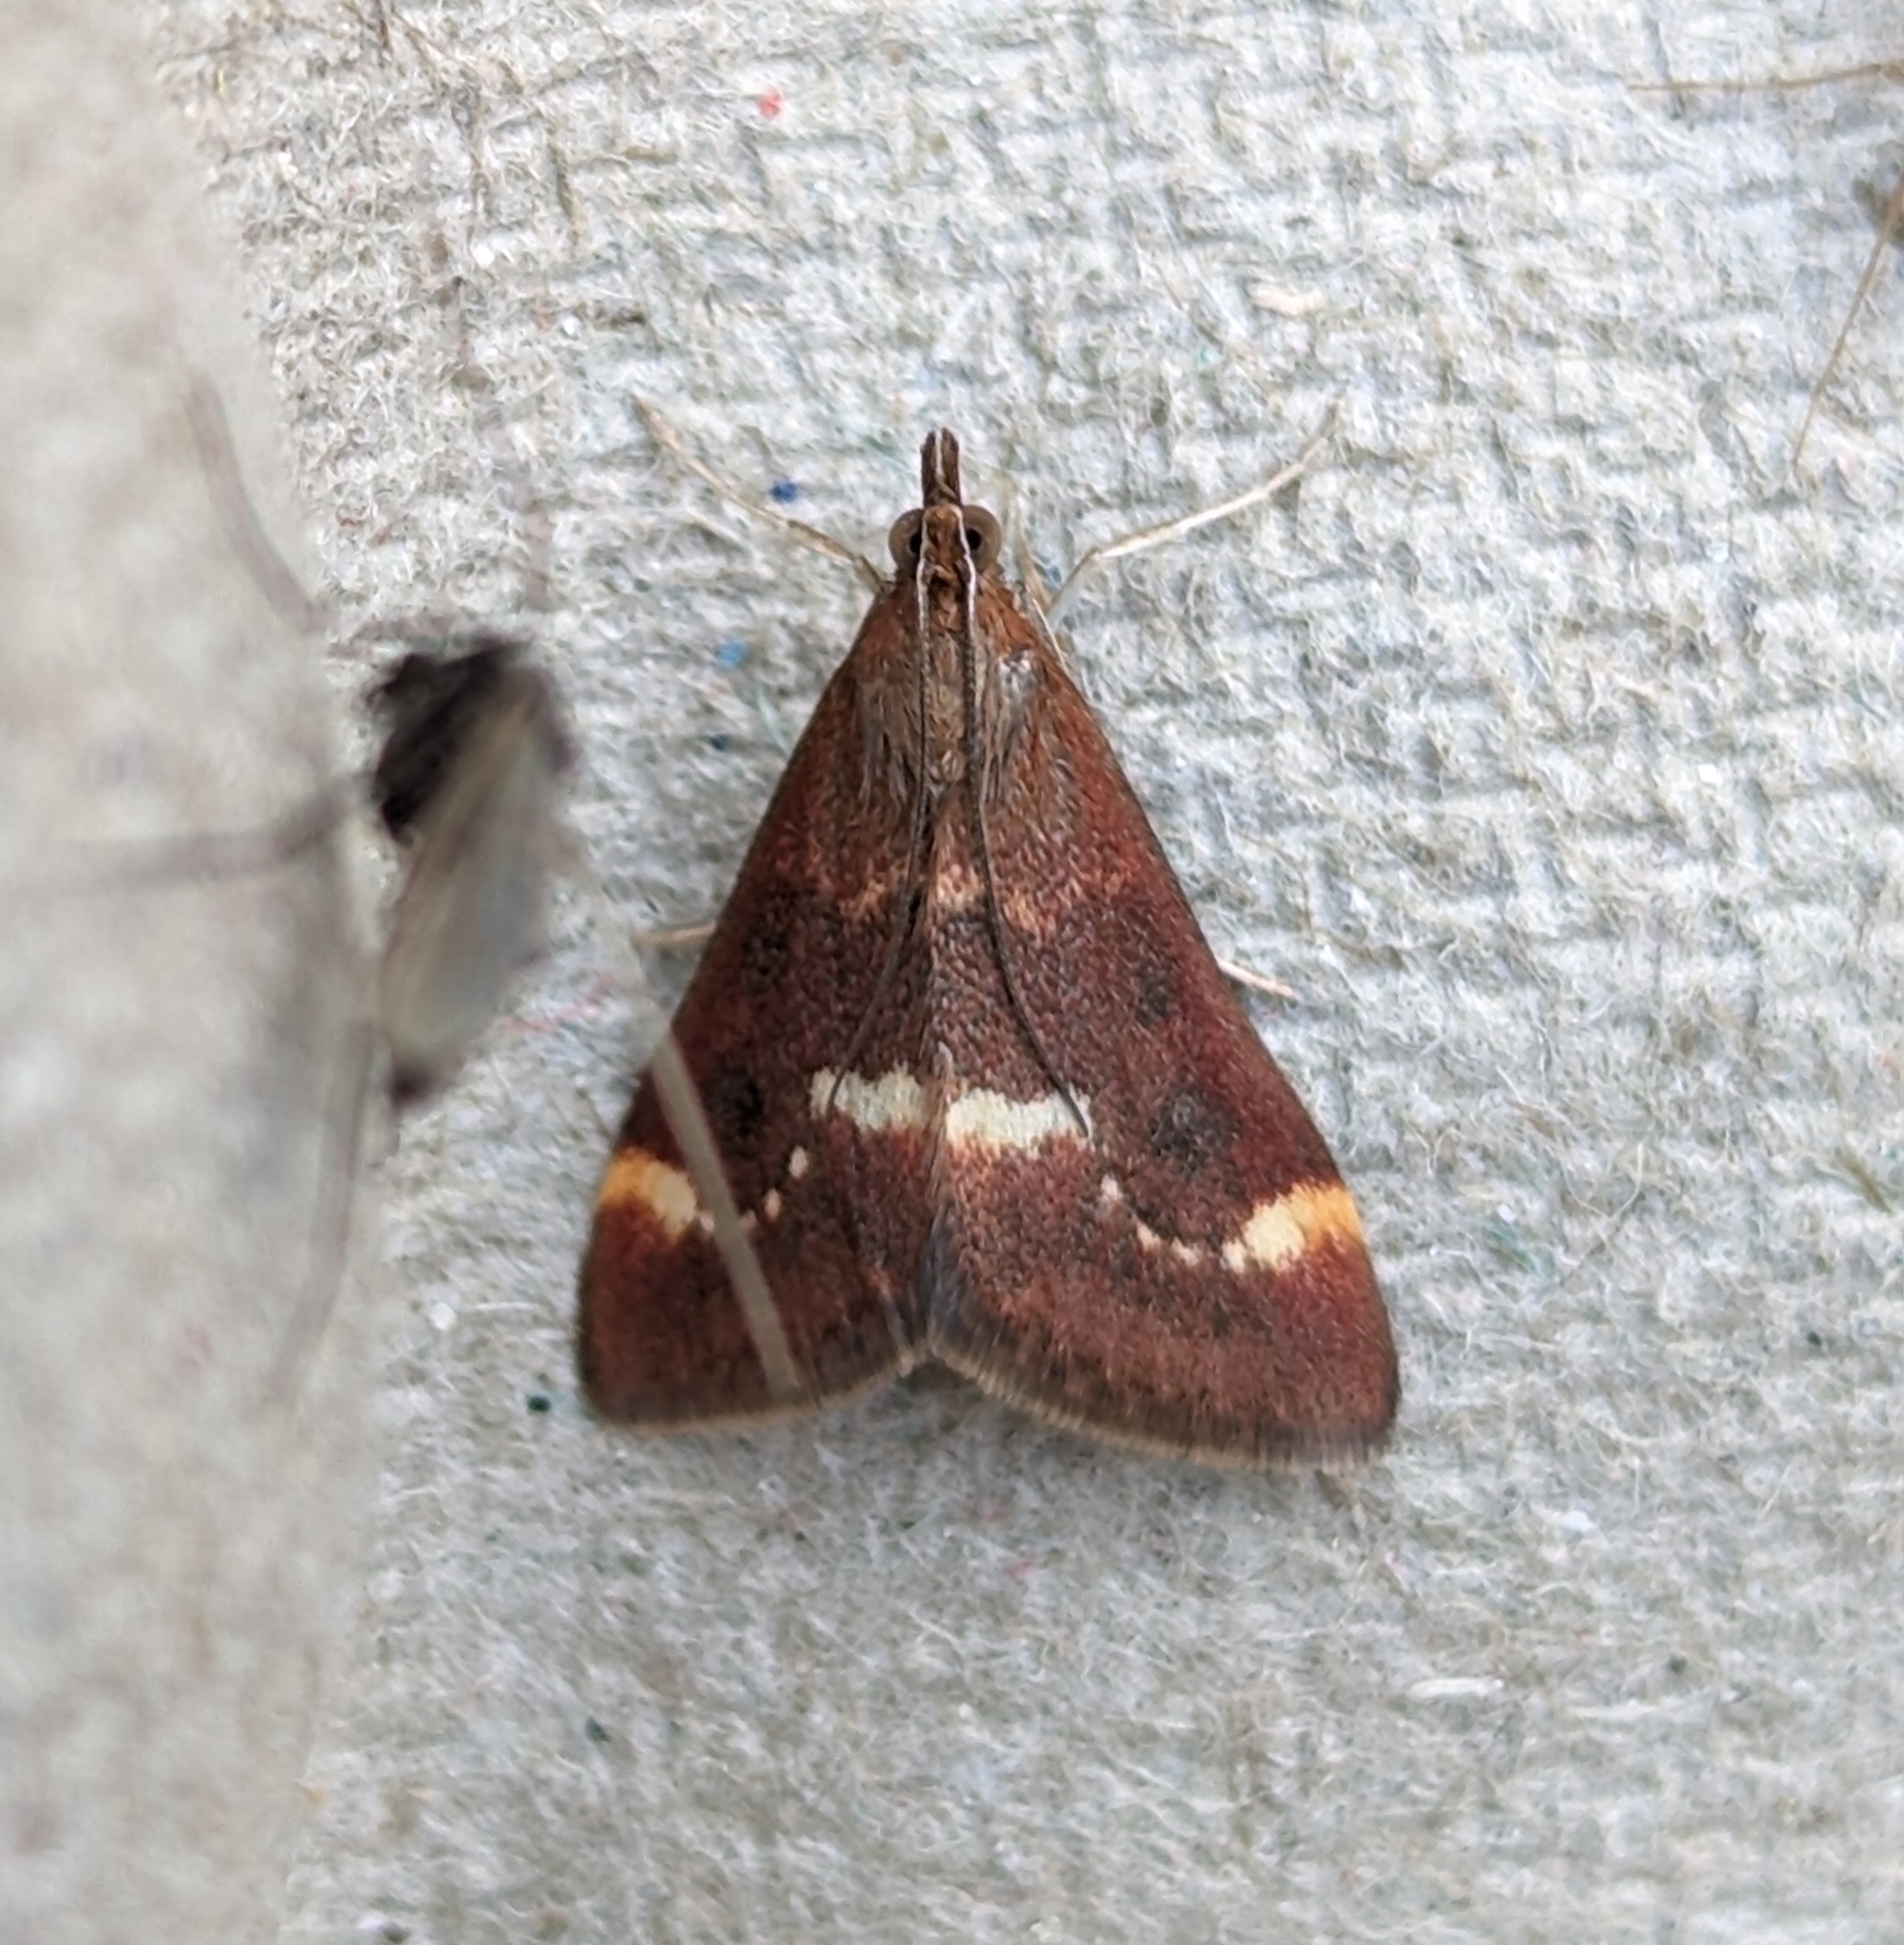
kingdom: Animalia
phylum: Arthropoda
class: Insecta
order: Lepidoptera
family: Crambidae
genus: Pyrausta
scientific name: Pyrausta nicalis
